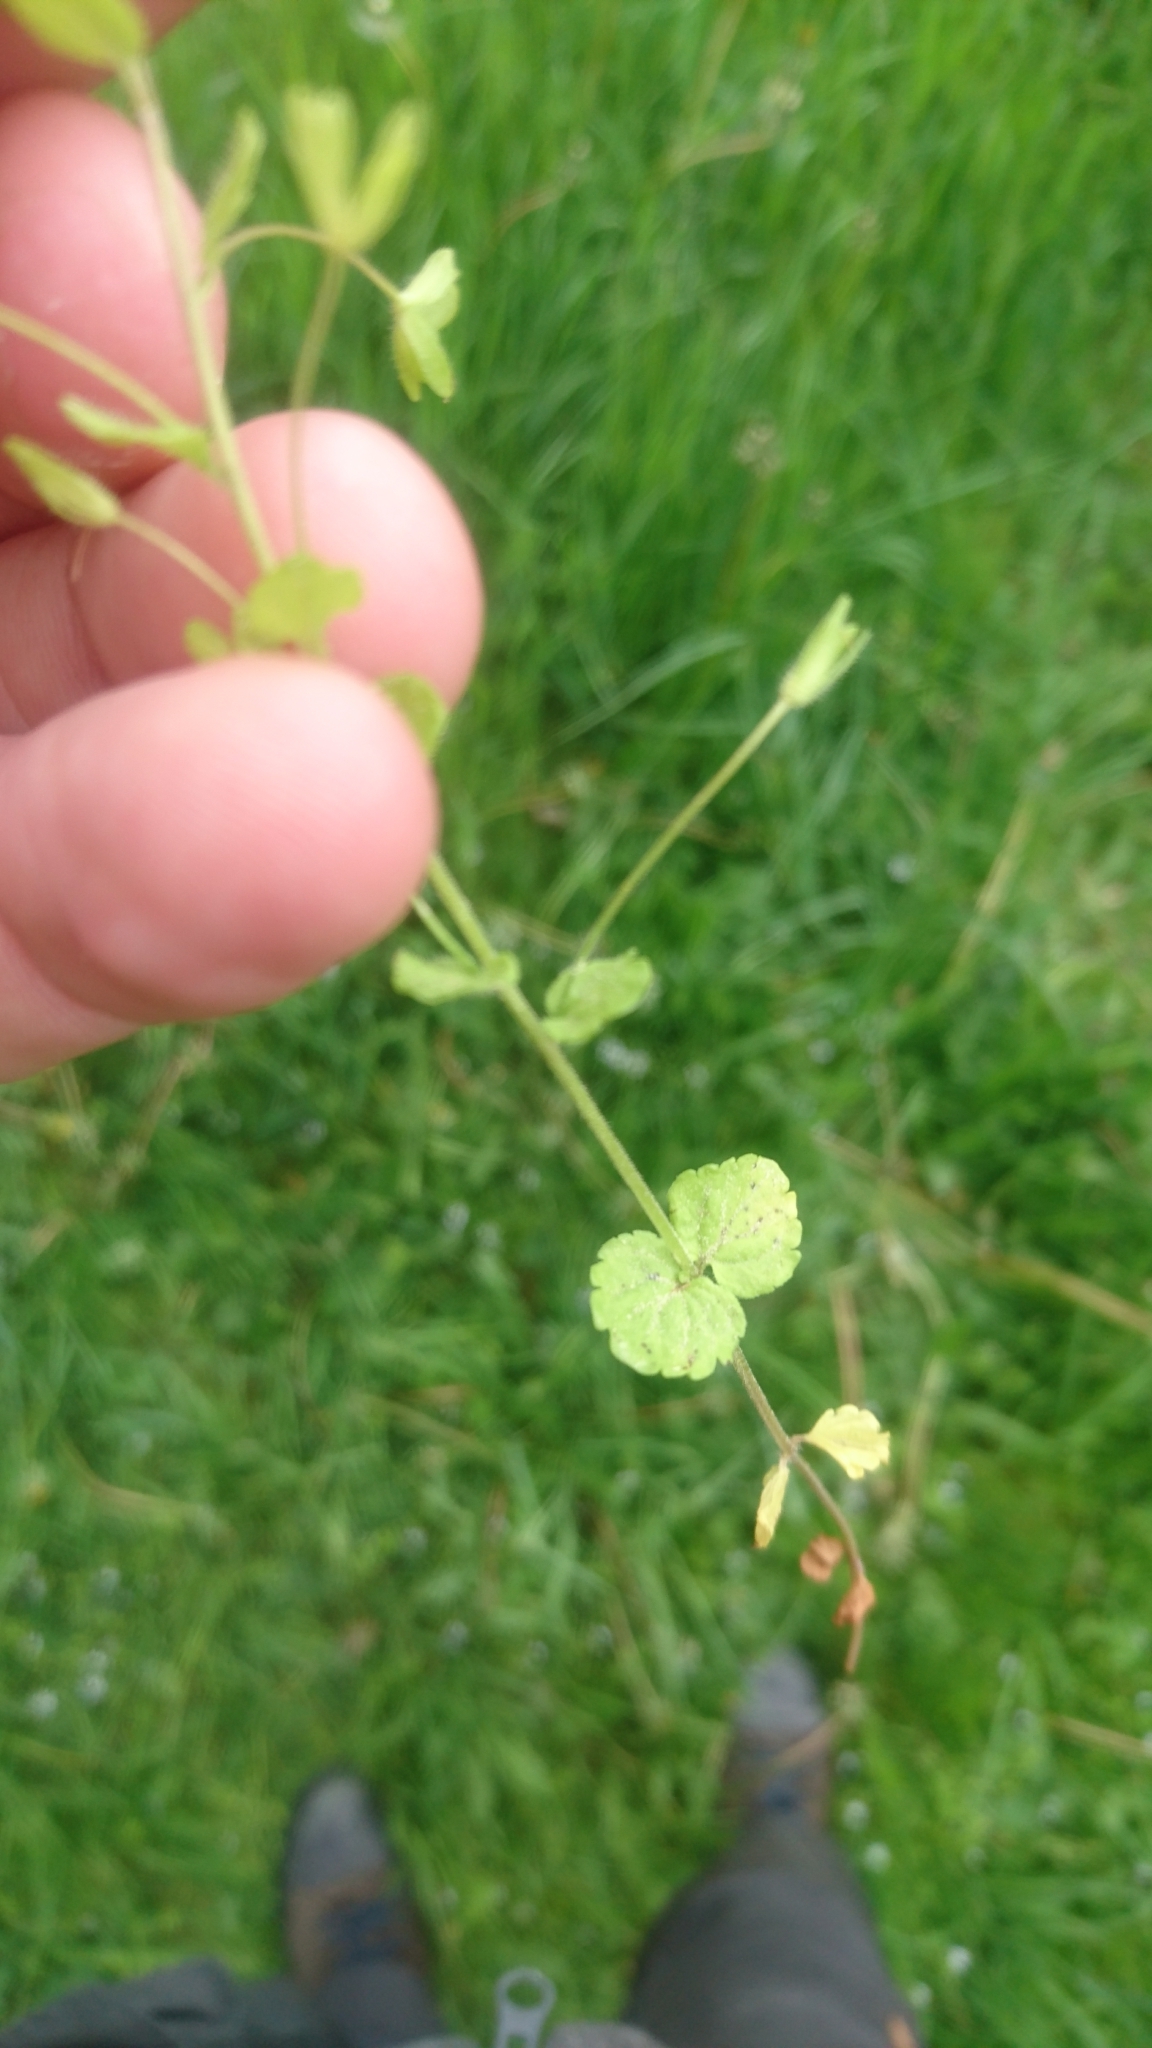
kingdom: Plantae
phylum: Tracheophyta
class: Magnoliopsida
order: Lamiales
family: Plantaginaceae
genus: Veronica
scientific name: Veronica filiformis
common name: Slender speedwell
